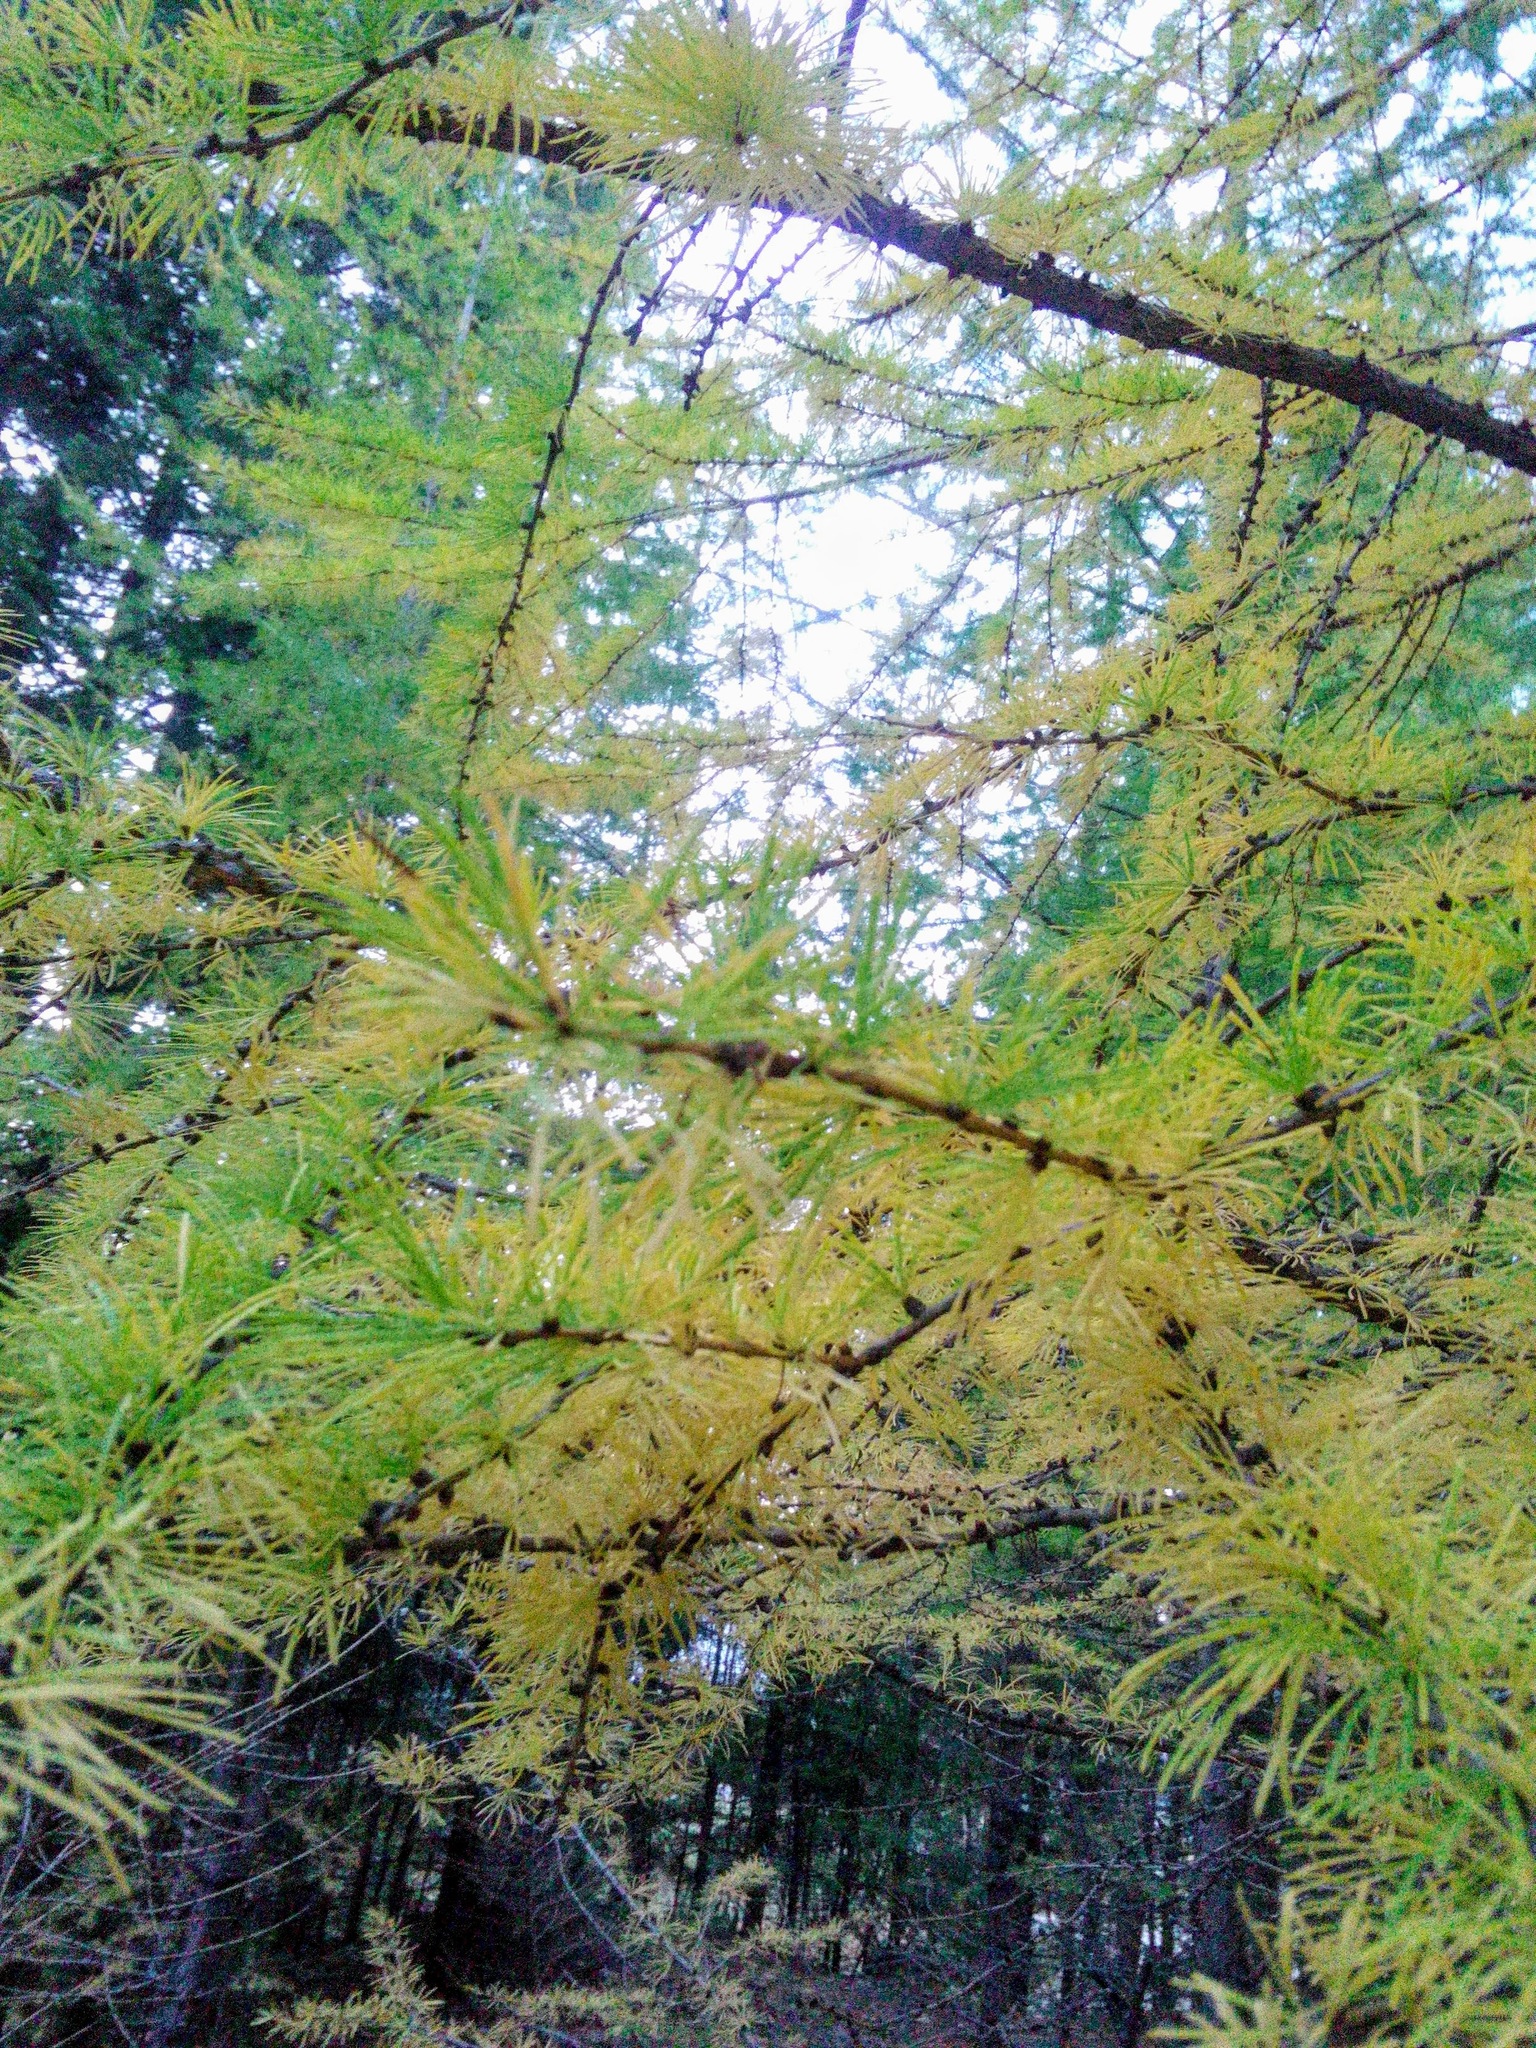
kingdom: Plantae
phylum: Tracheophyta
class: Pinopsida
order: Pinales
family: Pinaceae
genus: Larix
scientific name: Larix sibirica
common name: Siberian larch
